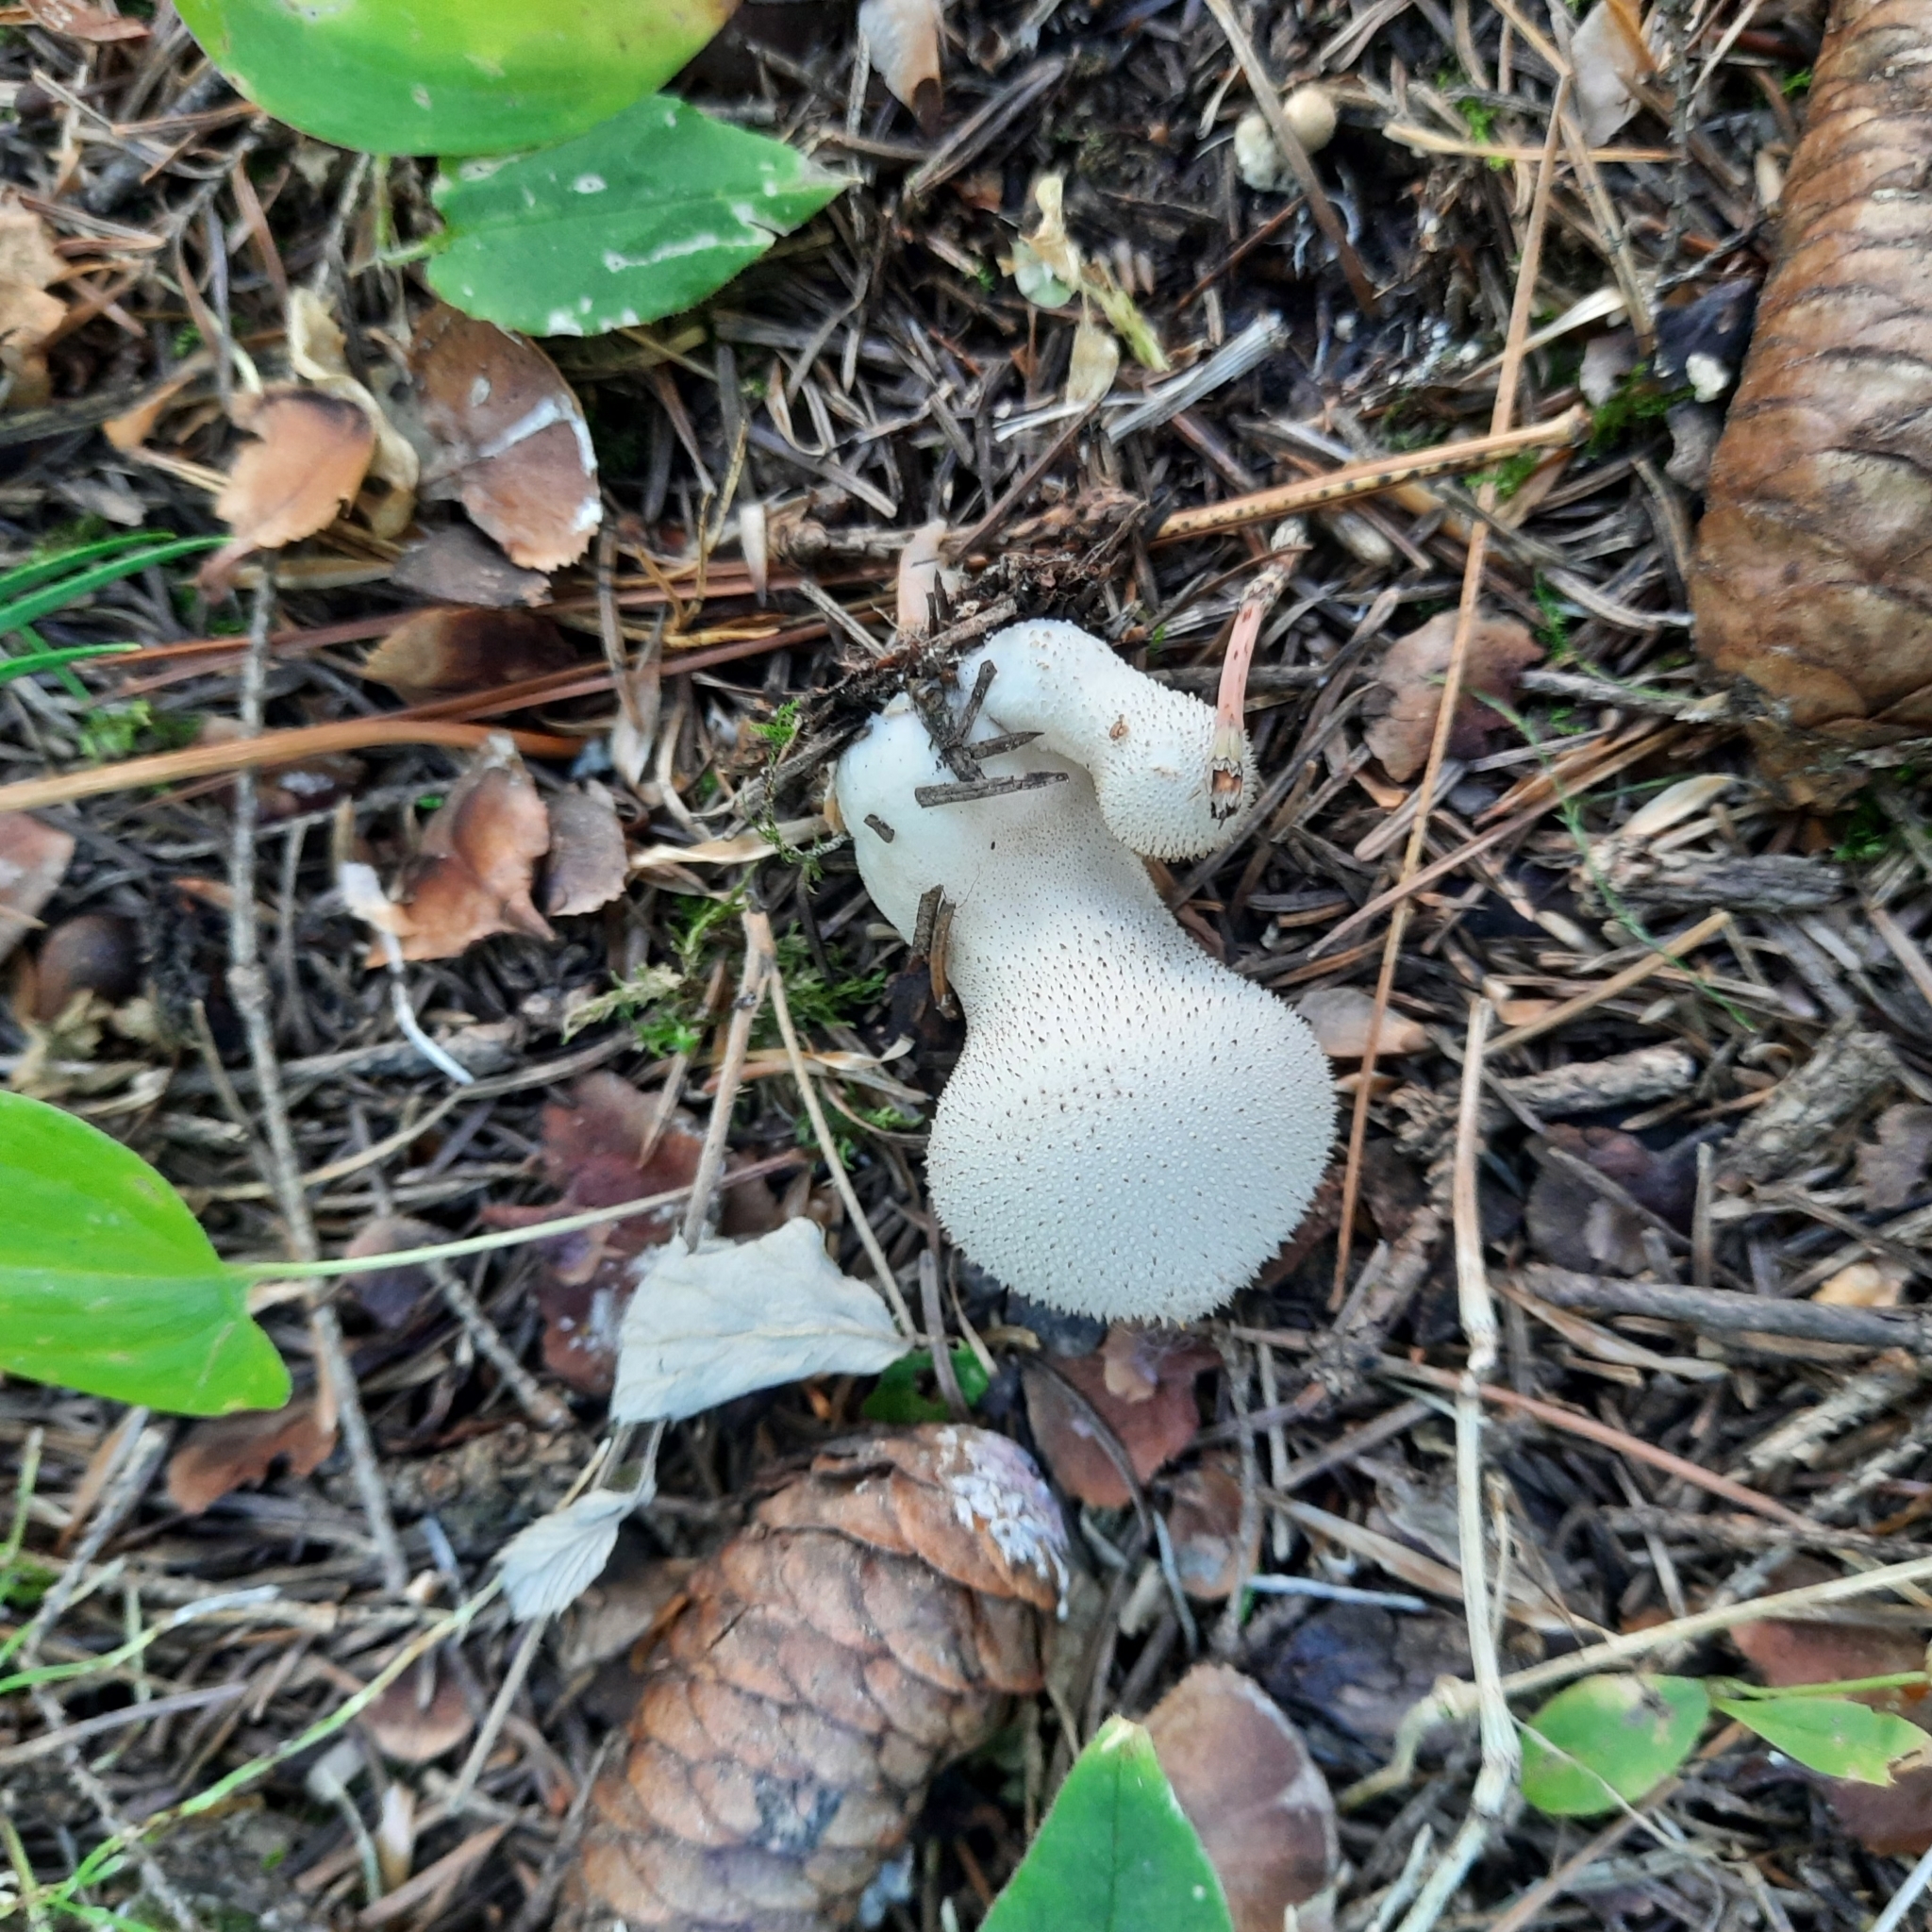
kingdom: Fungi
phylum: Basidiomycota
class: Agaricomycetes
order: Agaricales
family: Lycoperdaceae
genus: Lycoperdon
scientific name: Lycoperdon perlatum
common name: Common puffball
